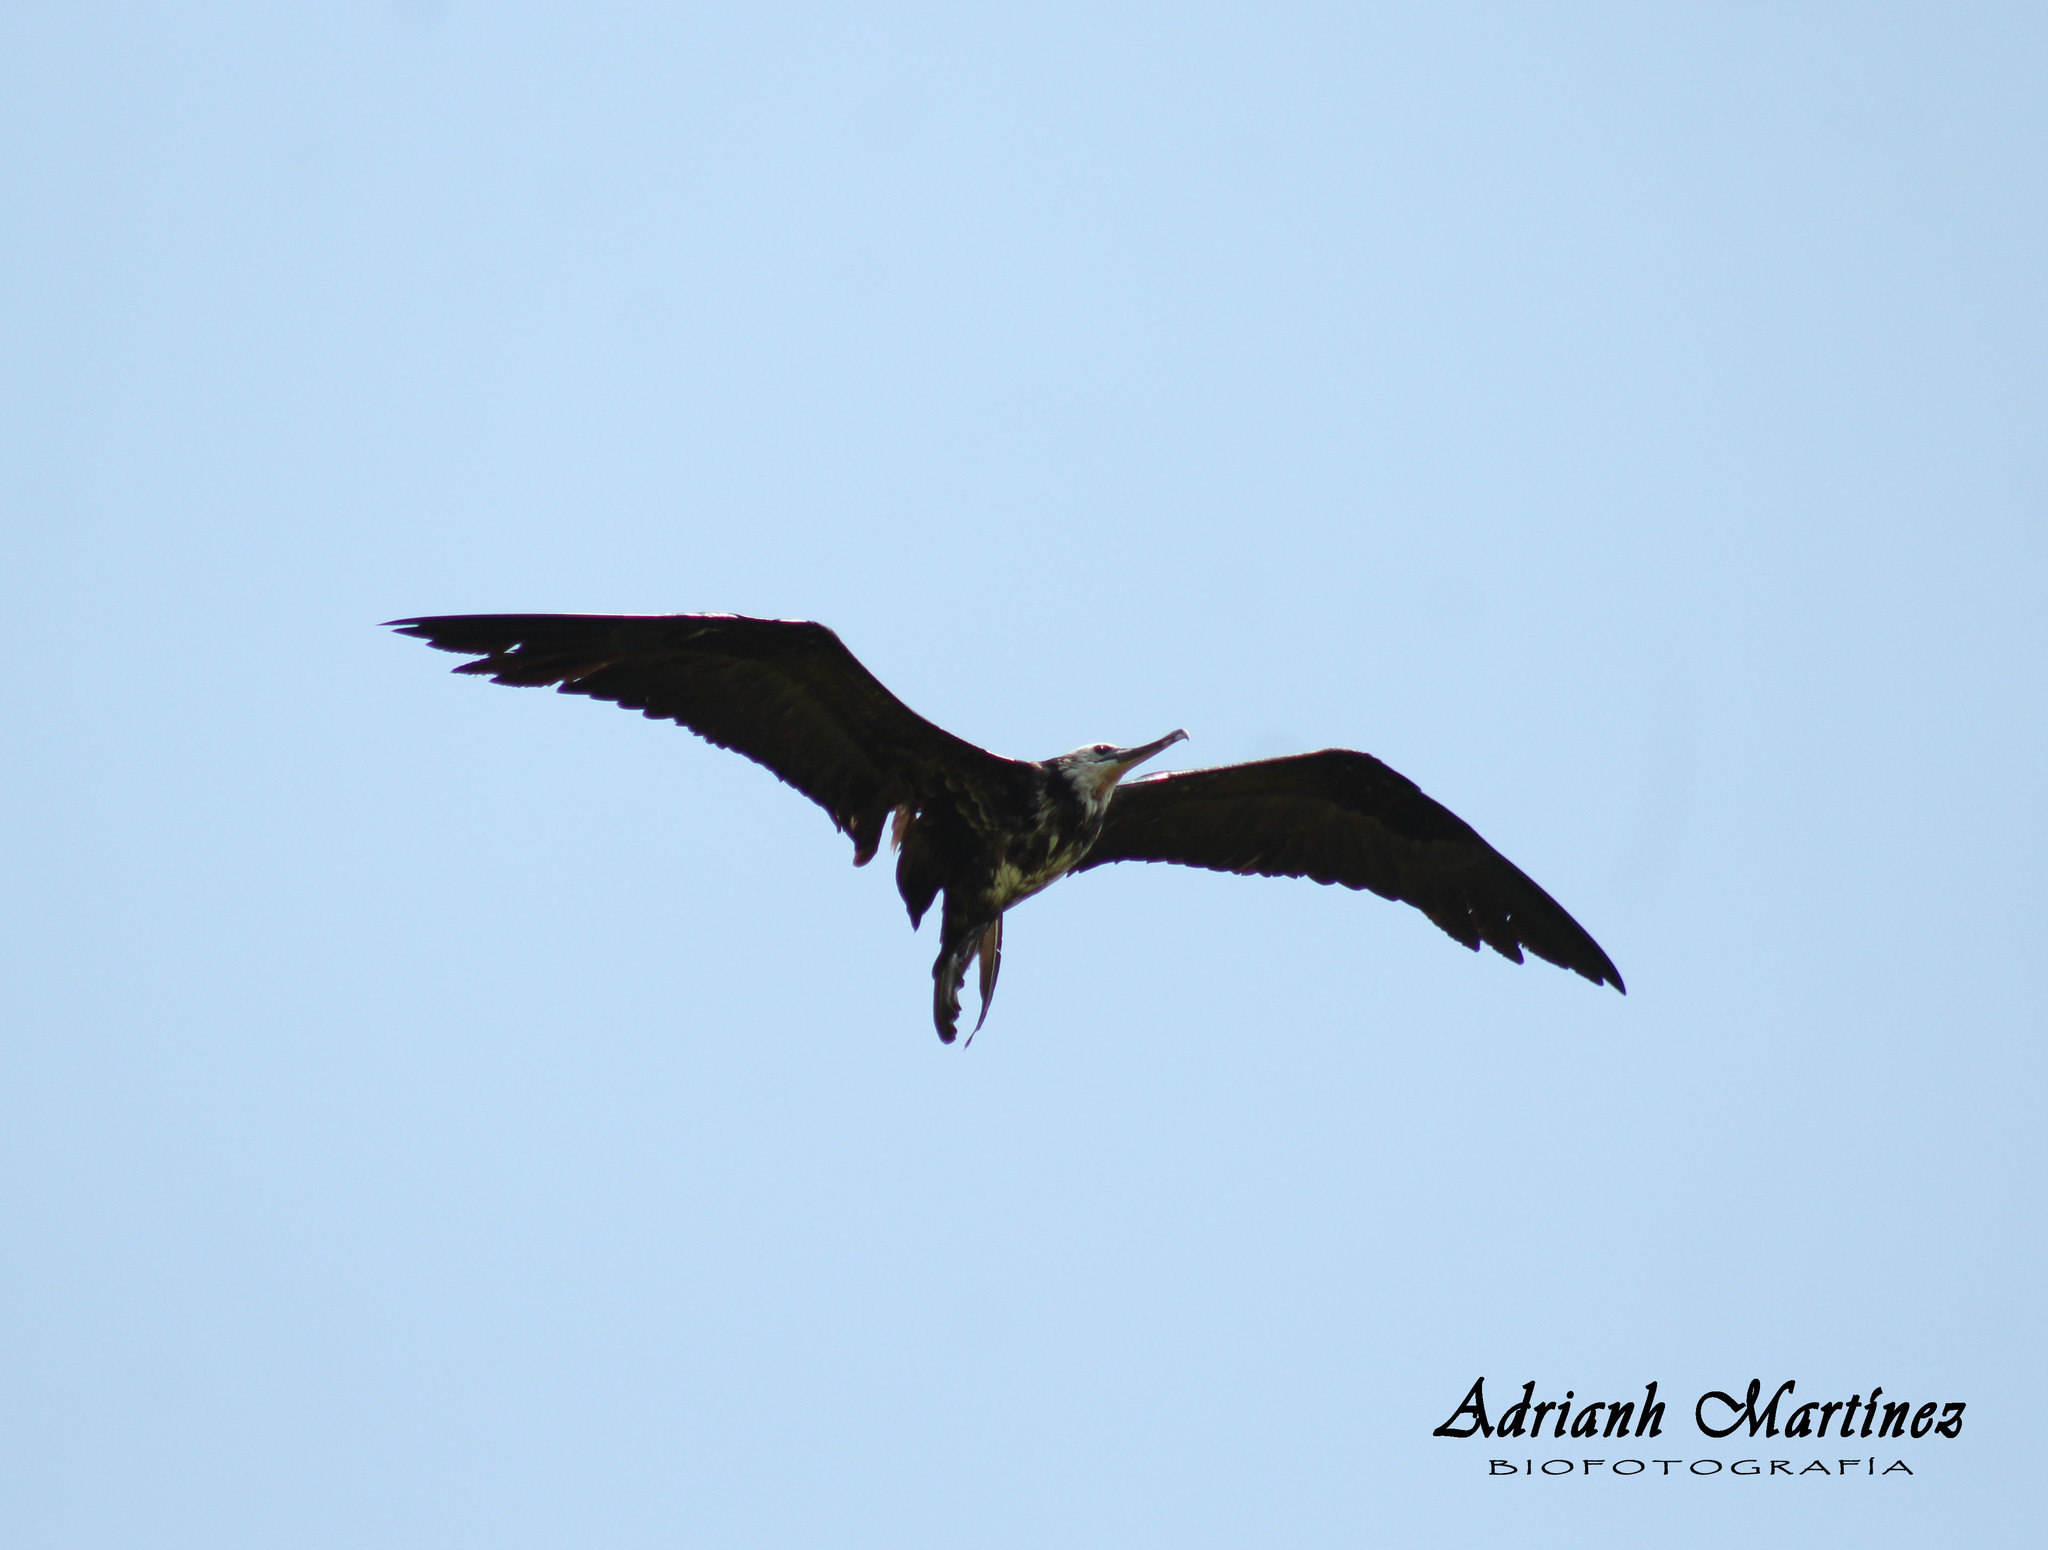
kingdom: Animalia
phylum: Chordata
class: Aves
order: Suliformes
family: Fregatidae
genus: Fregata
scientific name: Fregata magnificens
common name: Magnificent frigatebird
